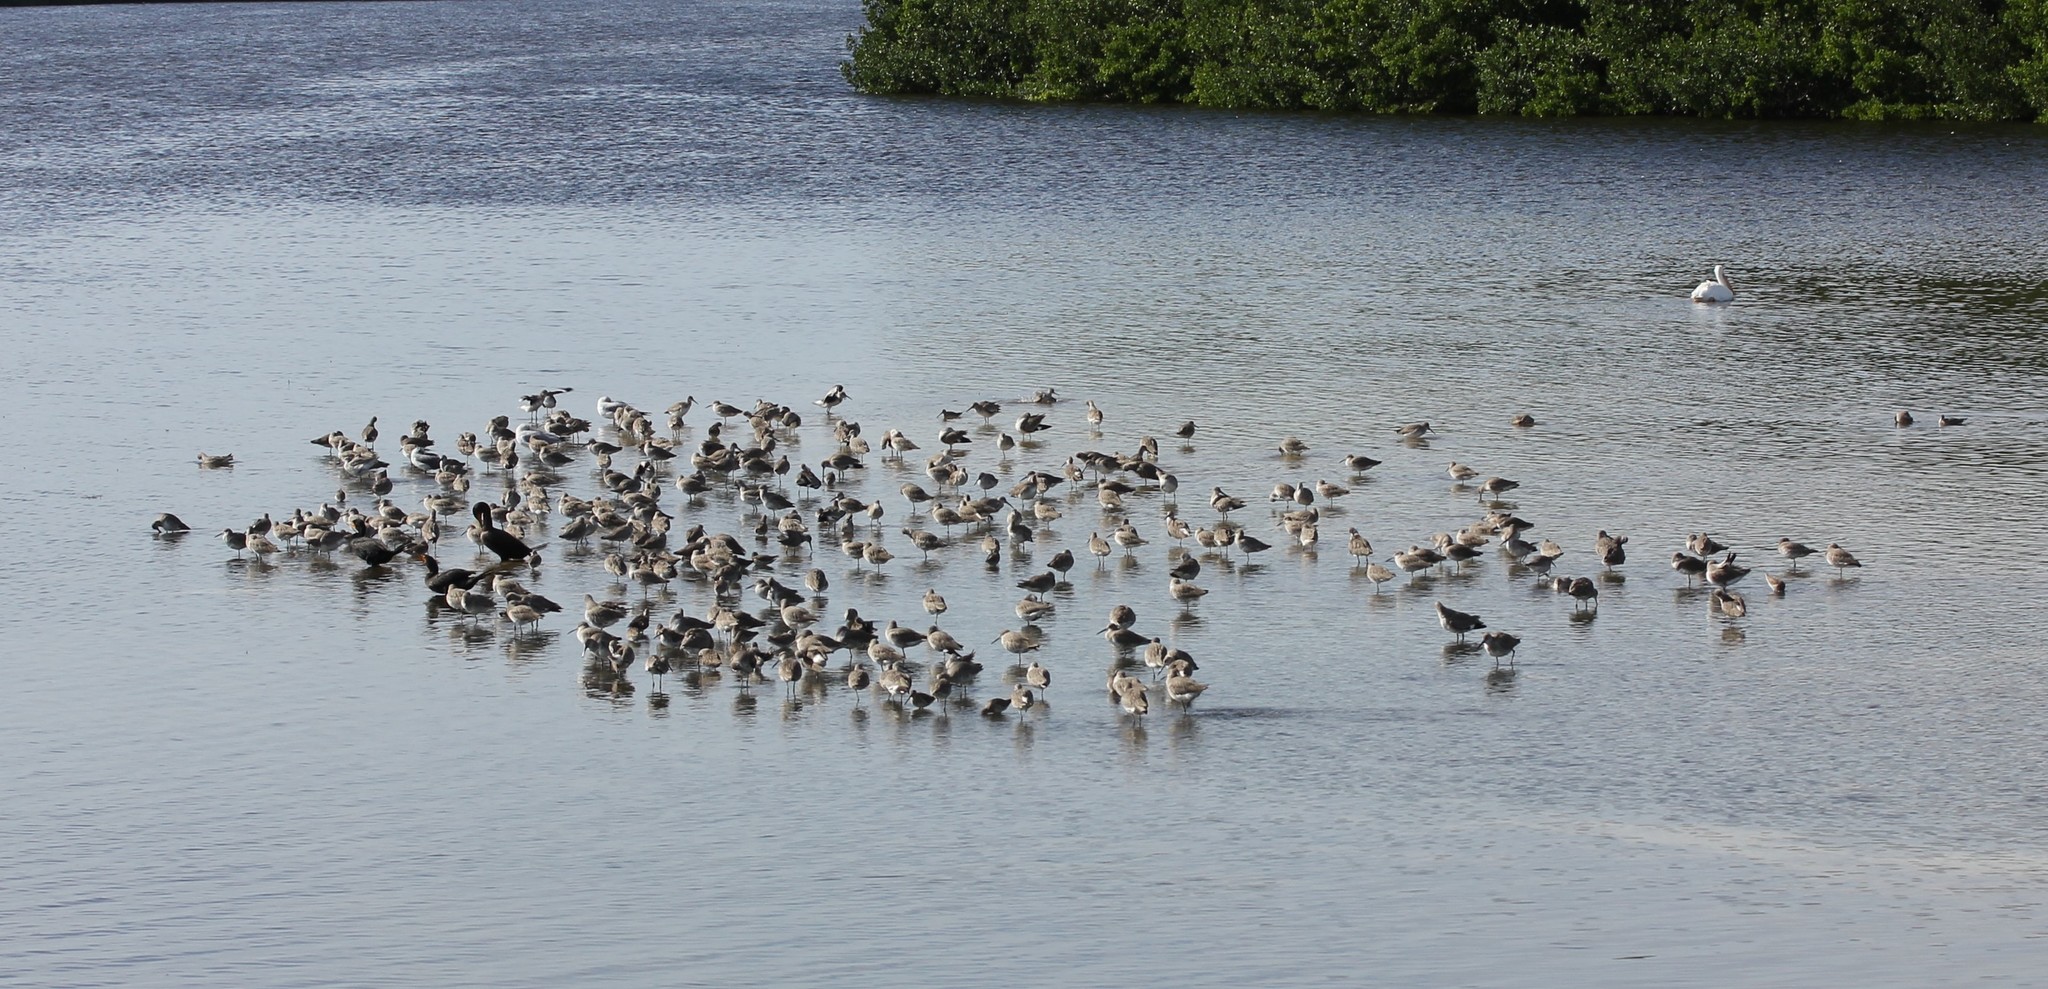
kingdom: Animalia
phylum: Chordata
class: Aves
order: Charadriiformes
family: Scolopacidae
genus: Calidris
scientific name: Calidris alpina
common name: Dunlin
